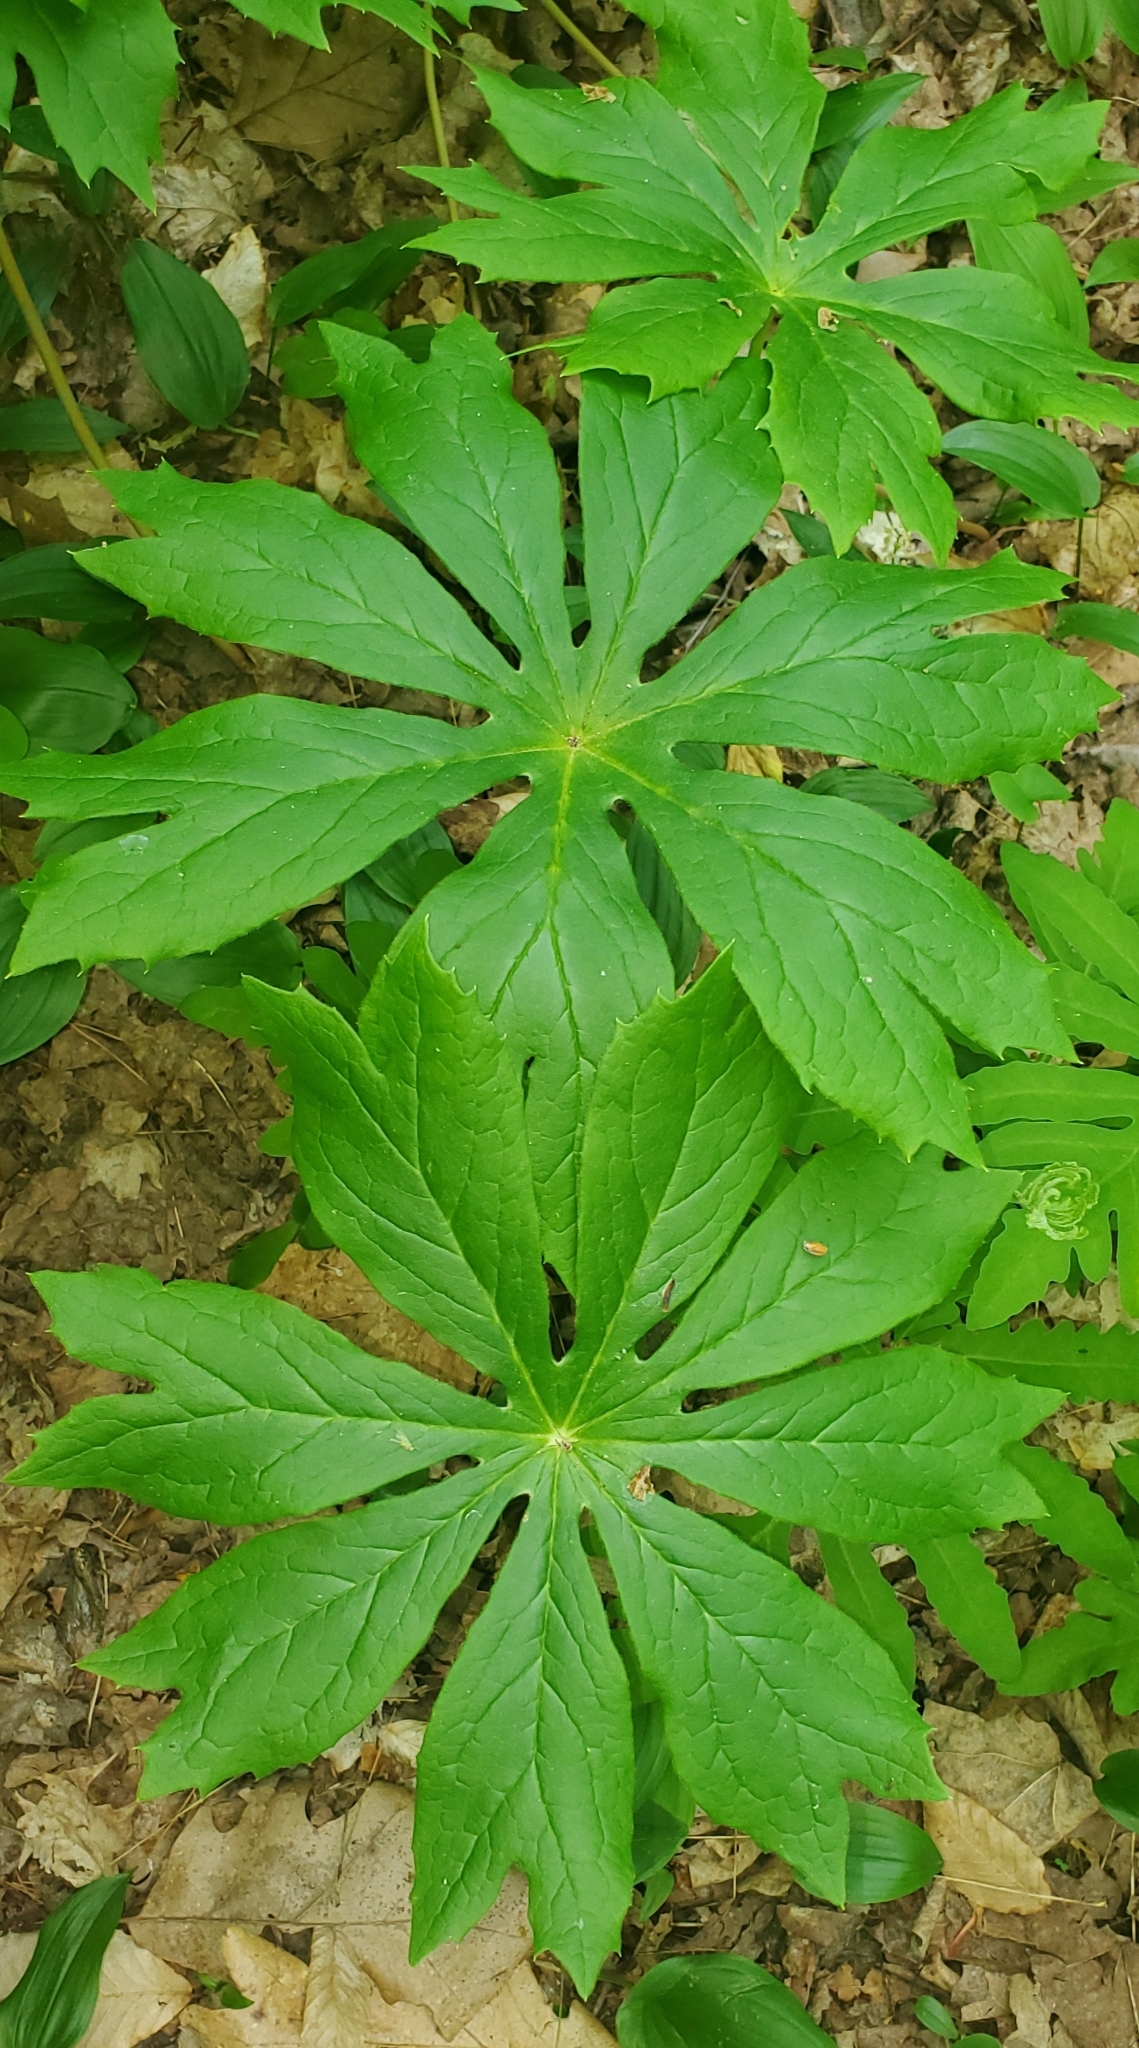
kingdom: Plantae
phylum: Tracheophyta
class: Magnoliopsida
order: Ranunculales
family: Berberidaceae
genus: Podophyllum
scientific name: Podophyllum peltatum
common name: Wild mandrake
